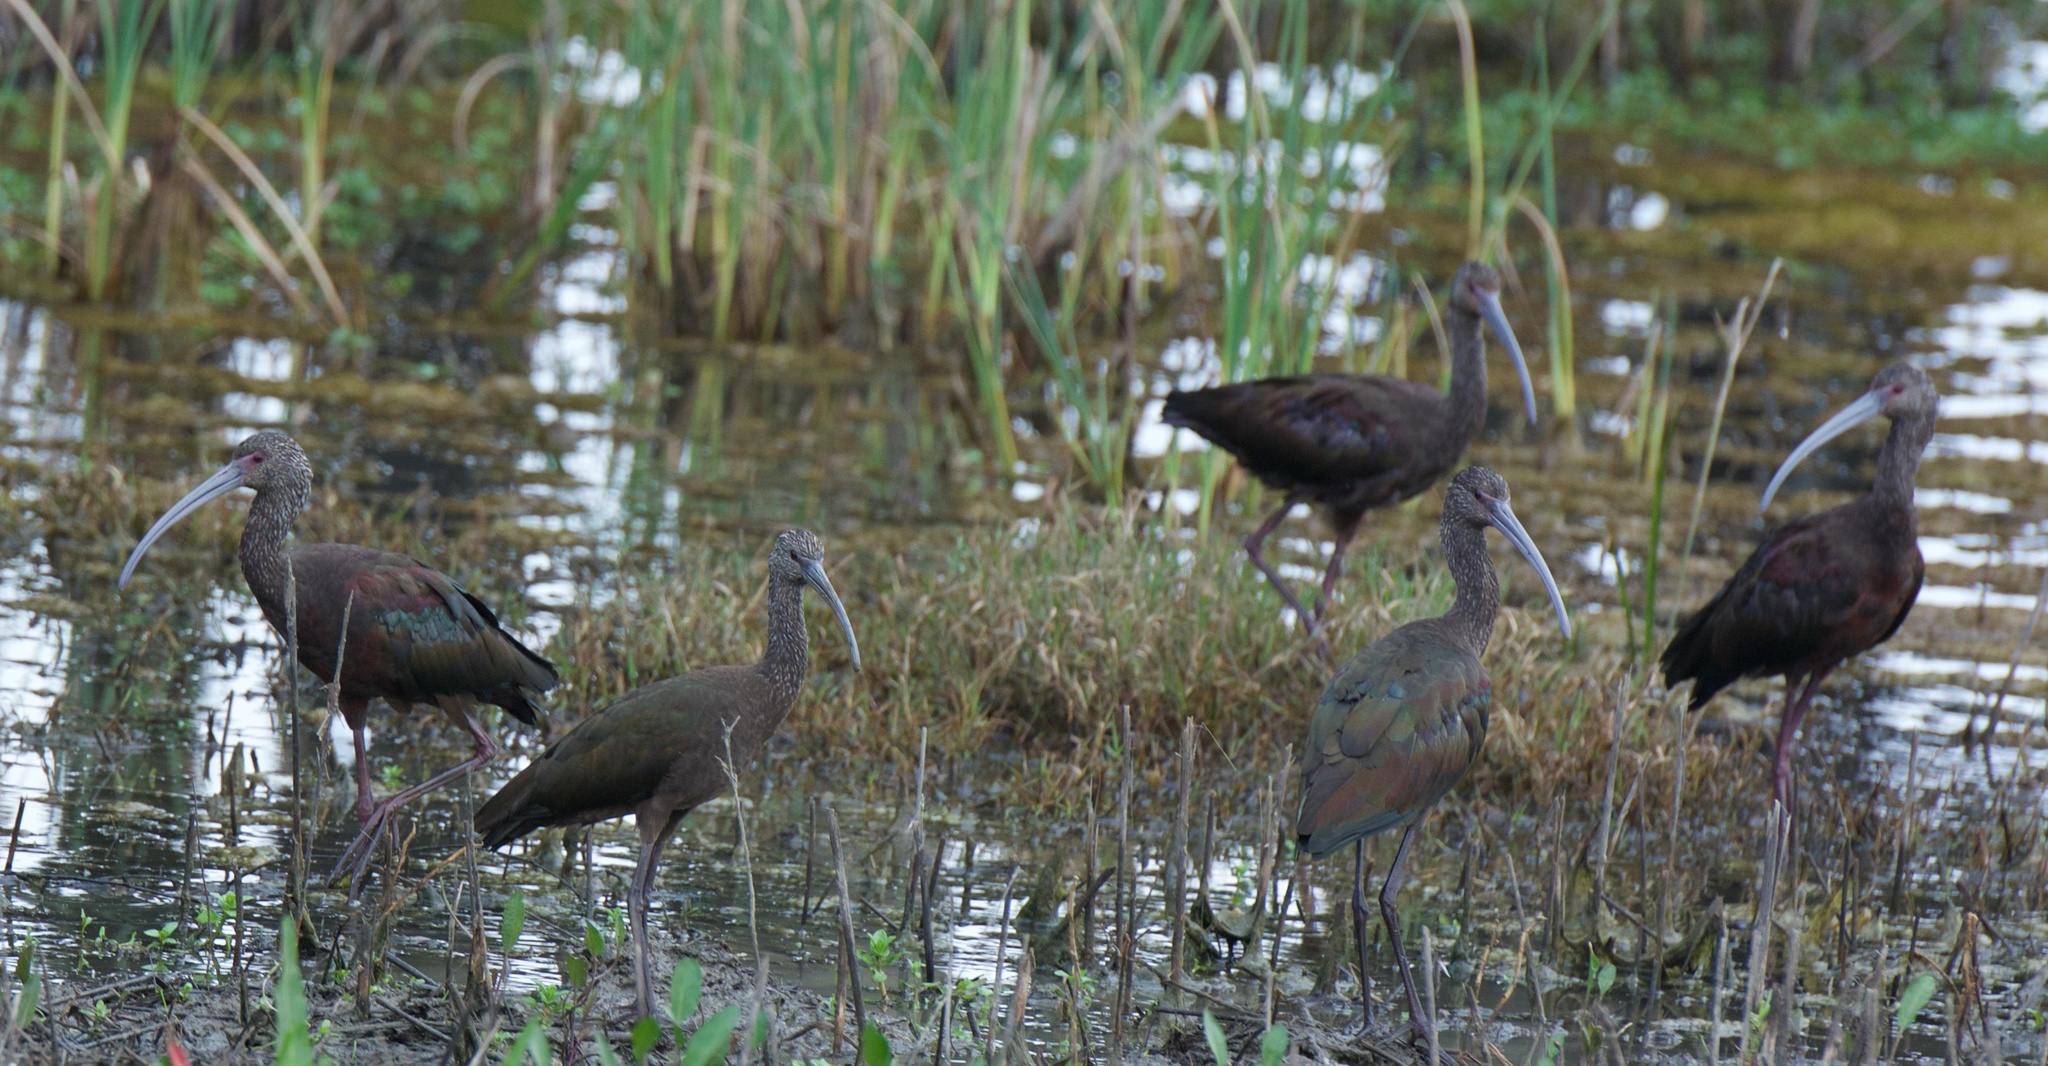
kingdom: Animalia
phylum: Chordata
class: Aves
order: Pelecaniformes
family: Threskiornithidae
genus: Plegadis
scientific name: Plegadis chihi
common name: White-faced ibis
